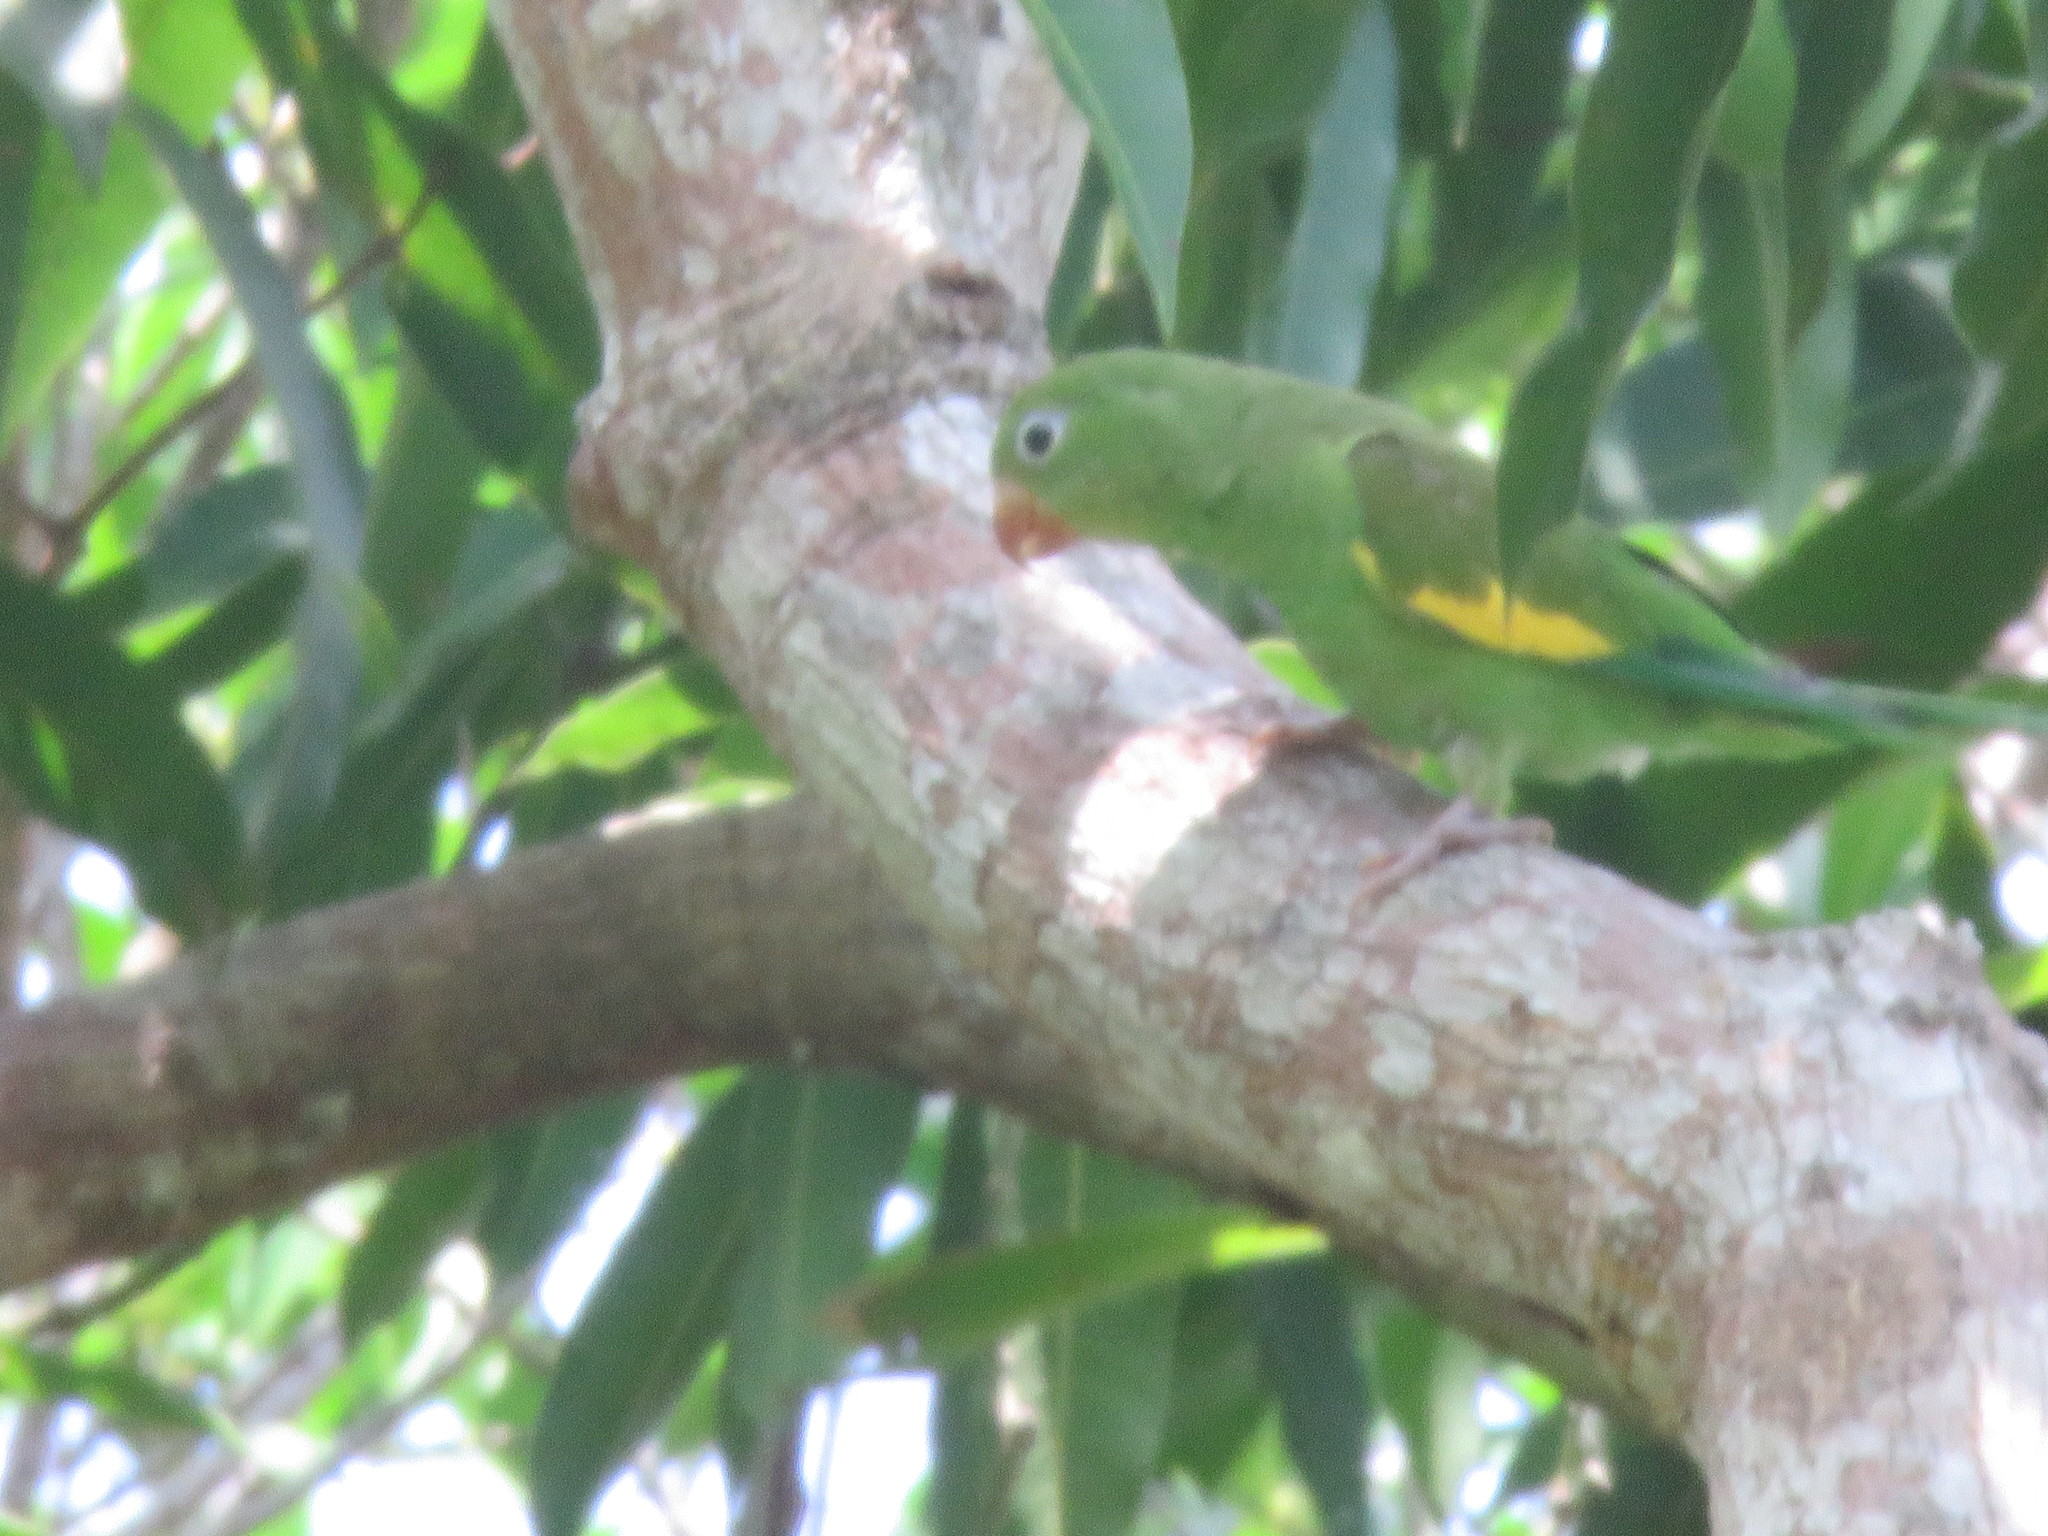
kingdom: Animalia
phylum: Chordata
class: Aves
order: Psittaciformes
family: Psittacidae
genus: Brotogeris
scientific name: Brotogeris chiriri
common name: Yellow-chevroned parakeet
